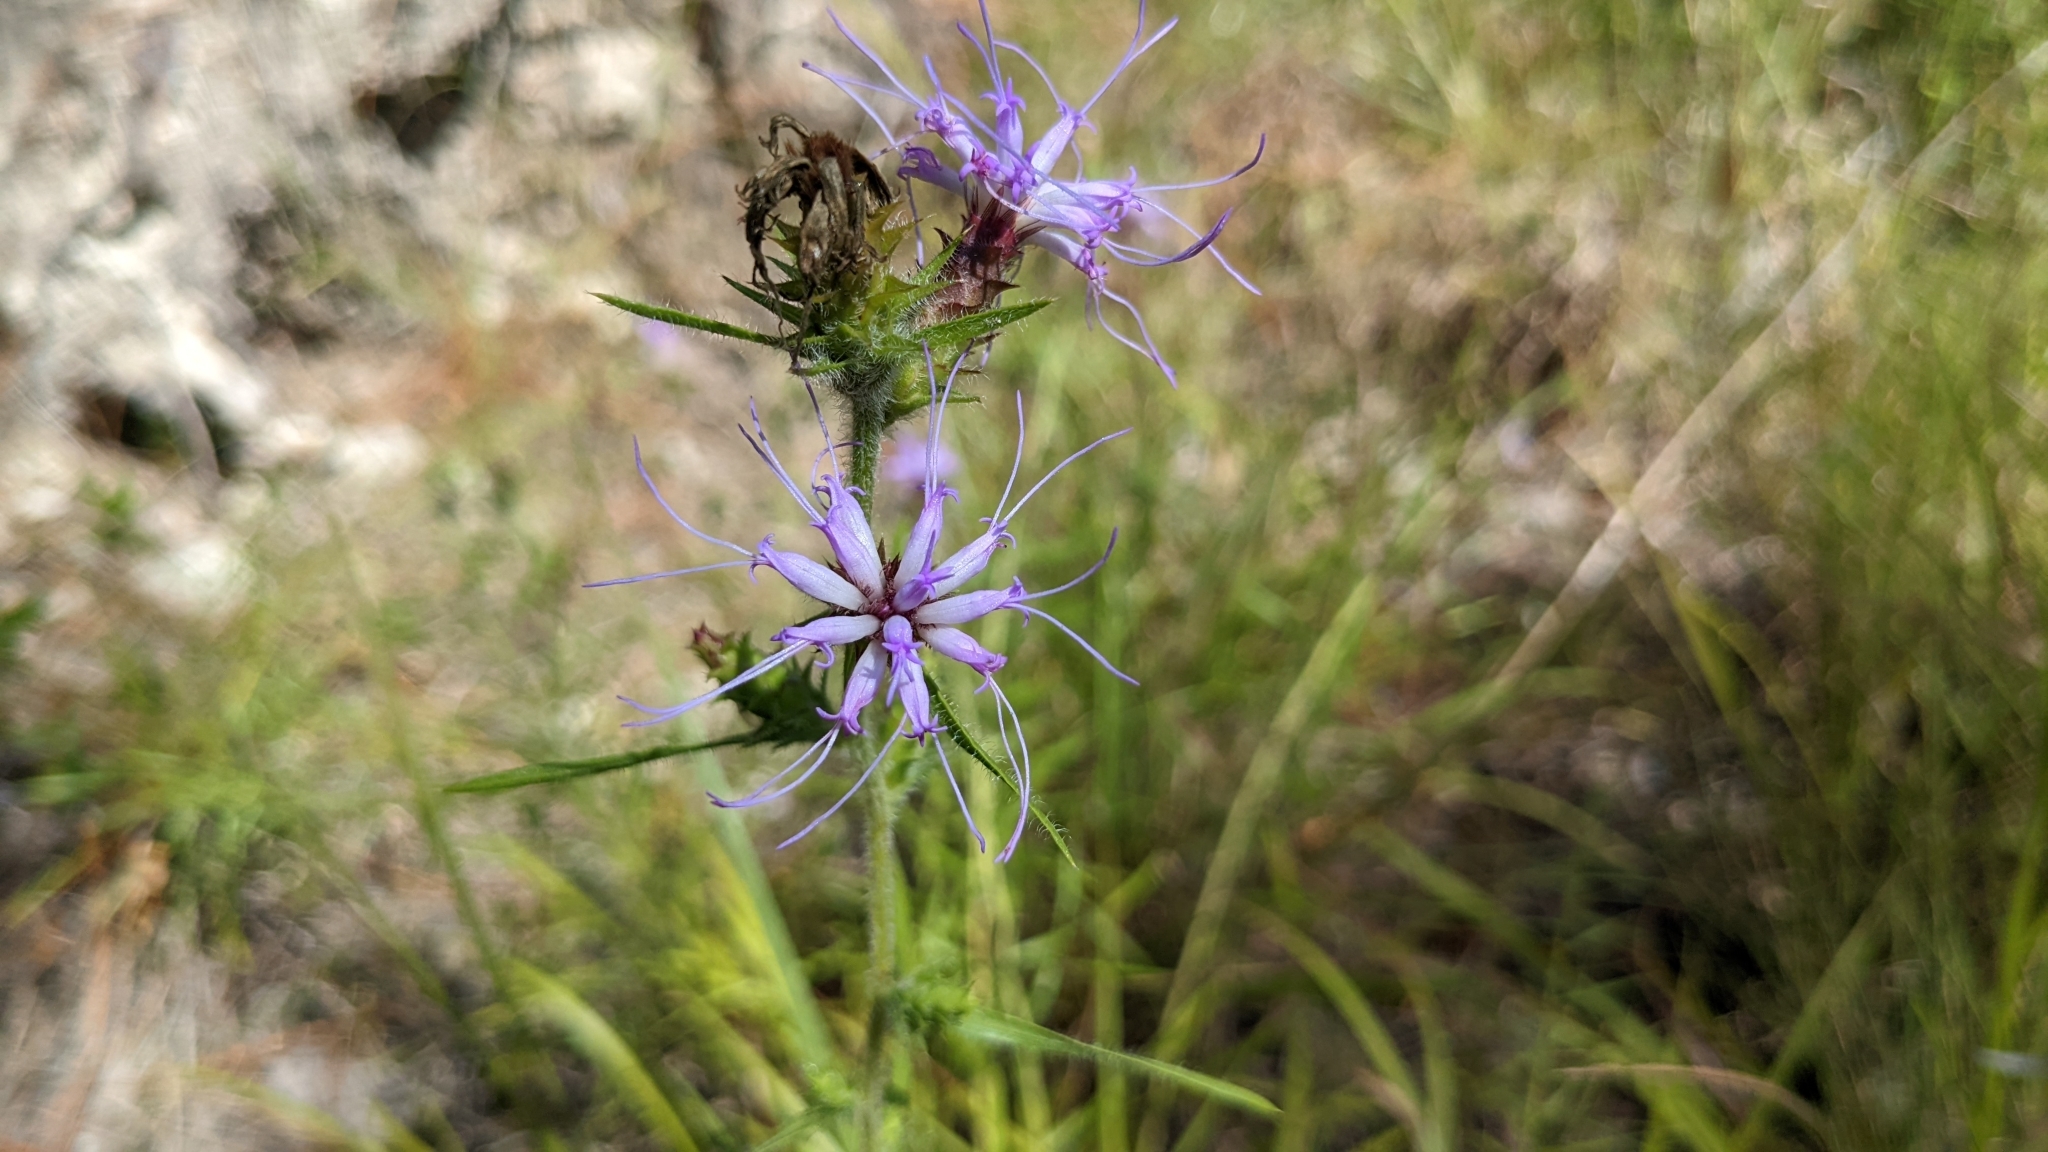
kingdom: Plantae
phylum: Tracheophyta
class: Magnoliopsida
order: Asterales
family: Asteraceae
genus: Liatris
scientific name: Liatris squarrosa
